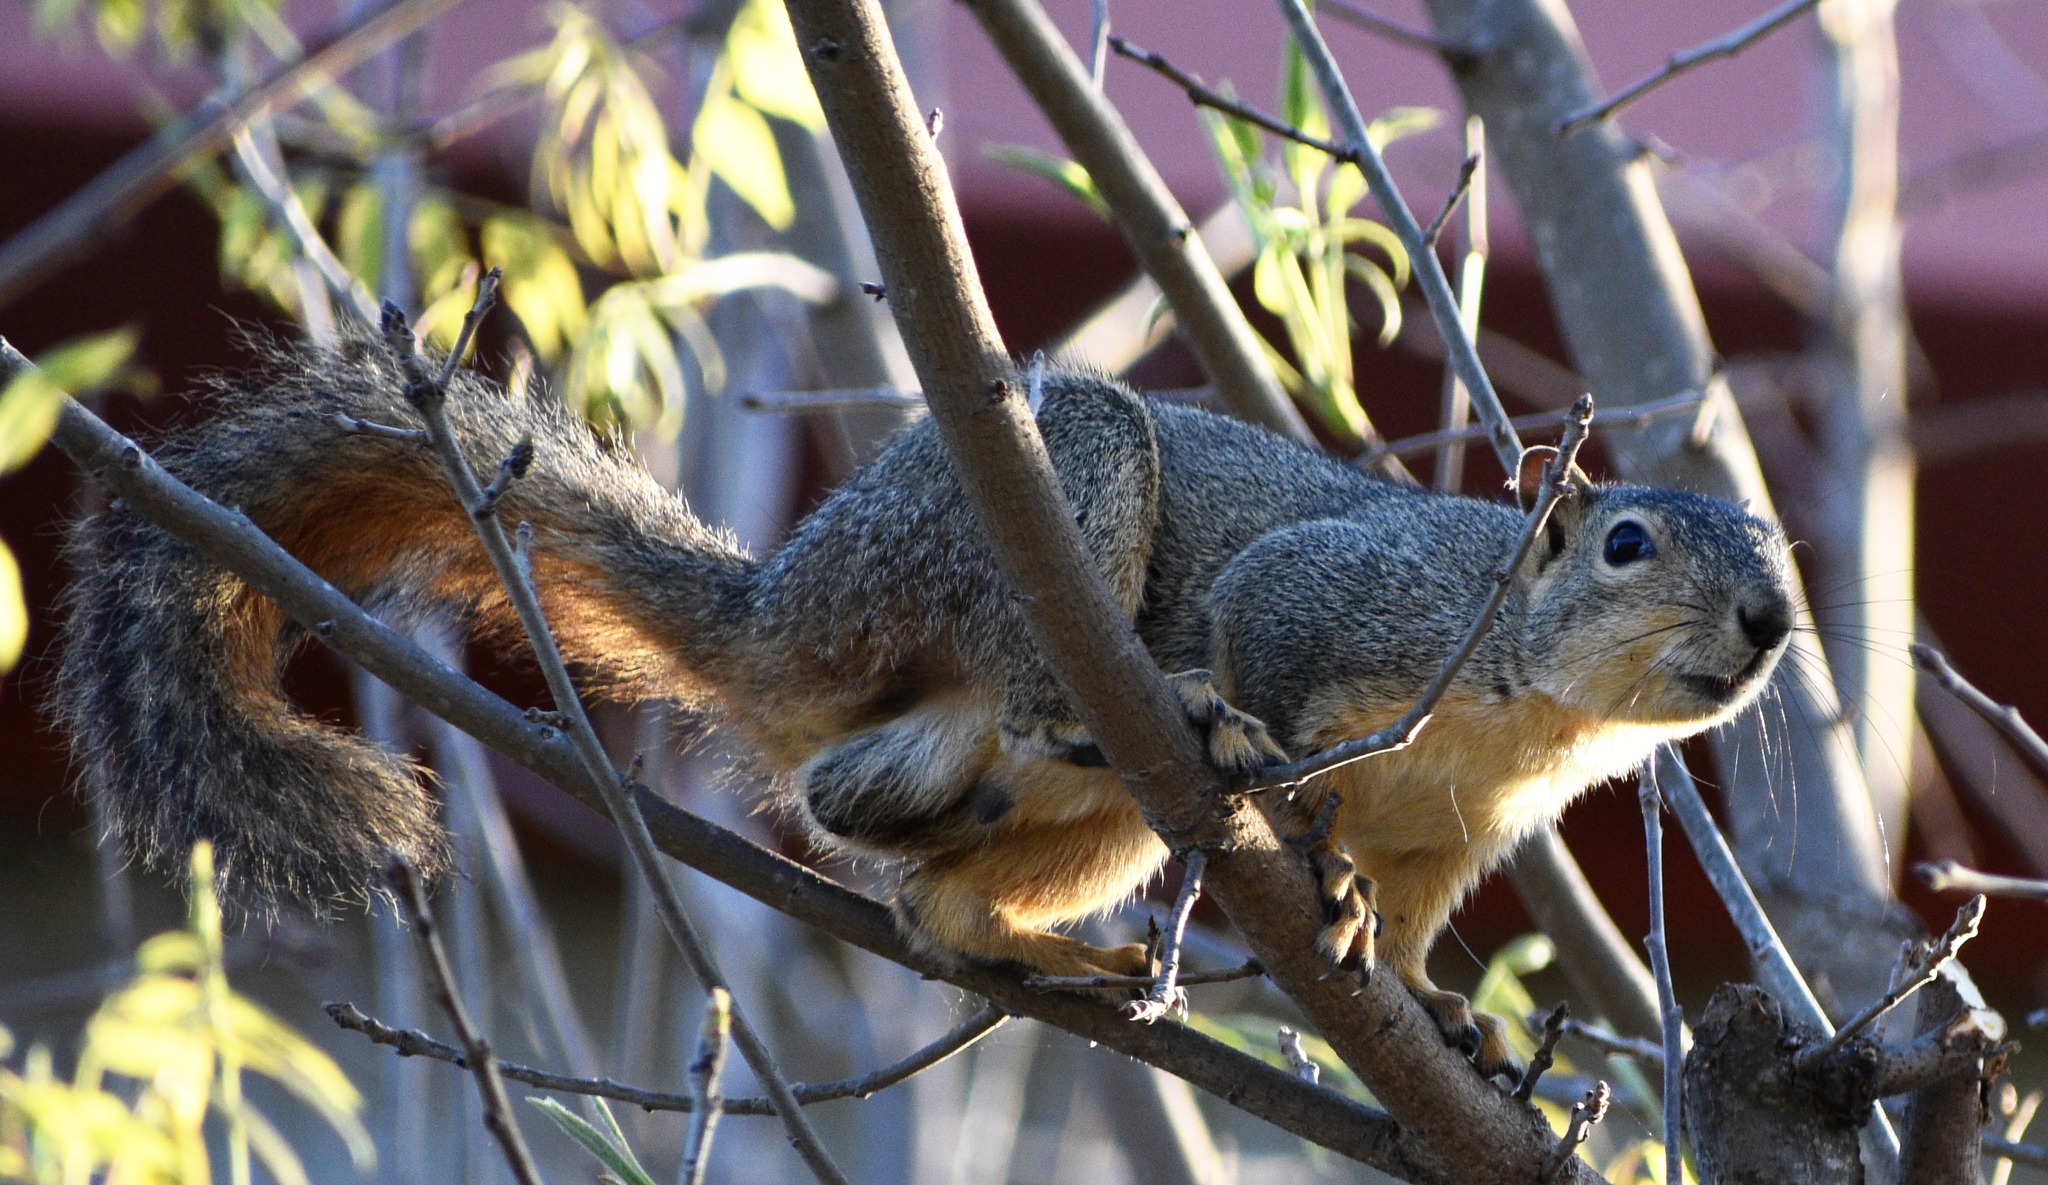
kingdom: Animalia
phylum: Chordata
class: Mammalia
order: Rodentia
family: Sciuridae
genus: Sciurus
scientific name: Sciurus niger
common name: Fox squirrel
